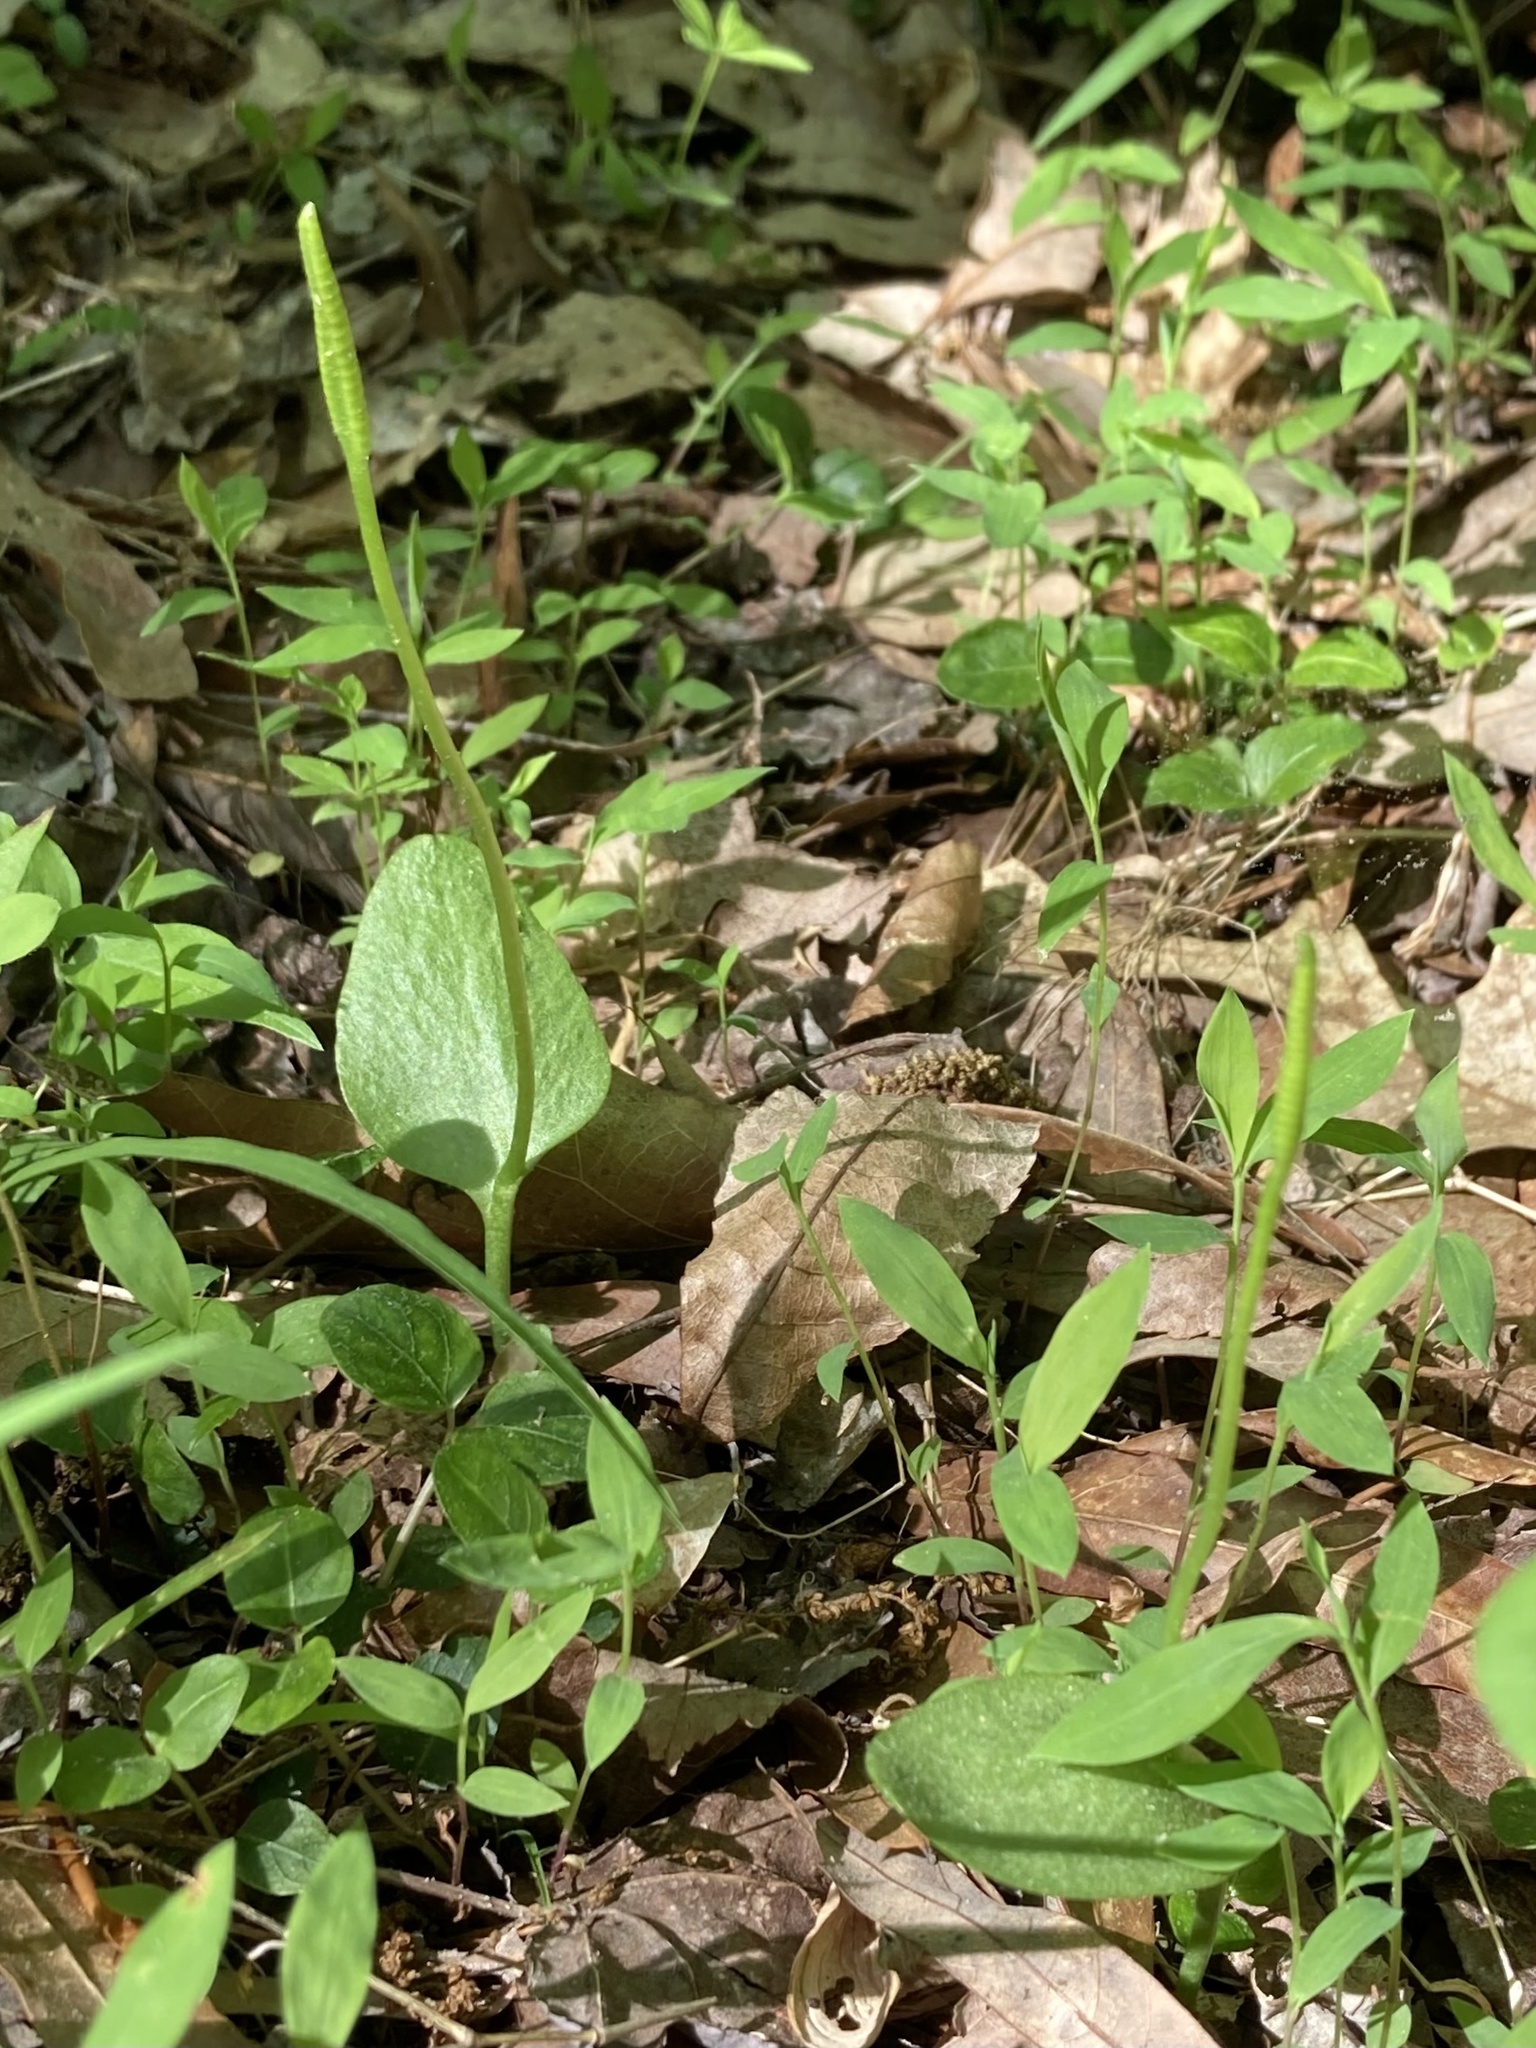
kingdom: Plantae
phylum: Tracheophyta
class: Polypodiopsida
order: Ophioglossales
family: Ophioglossaceae
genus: Ophioglossum
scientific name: Ophioglossum vulgatum
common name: Adder's-tongue
